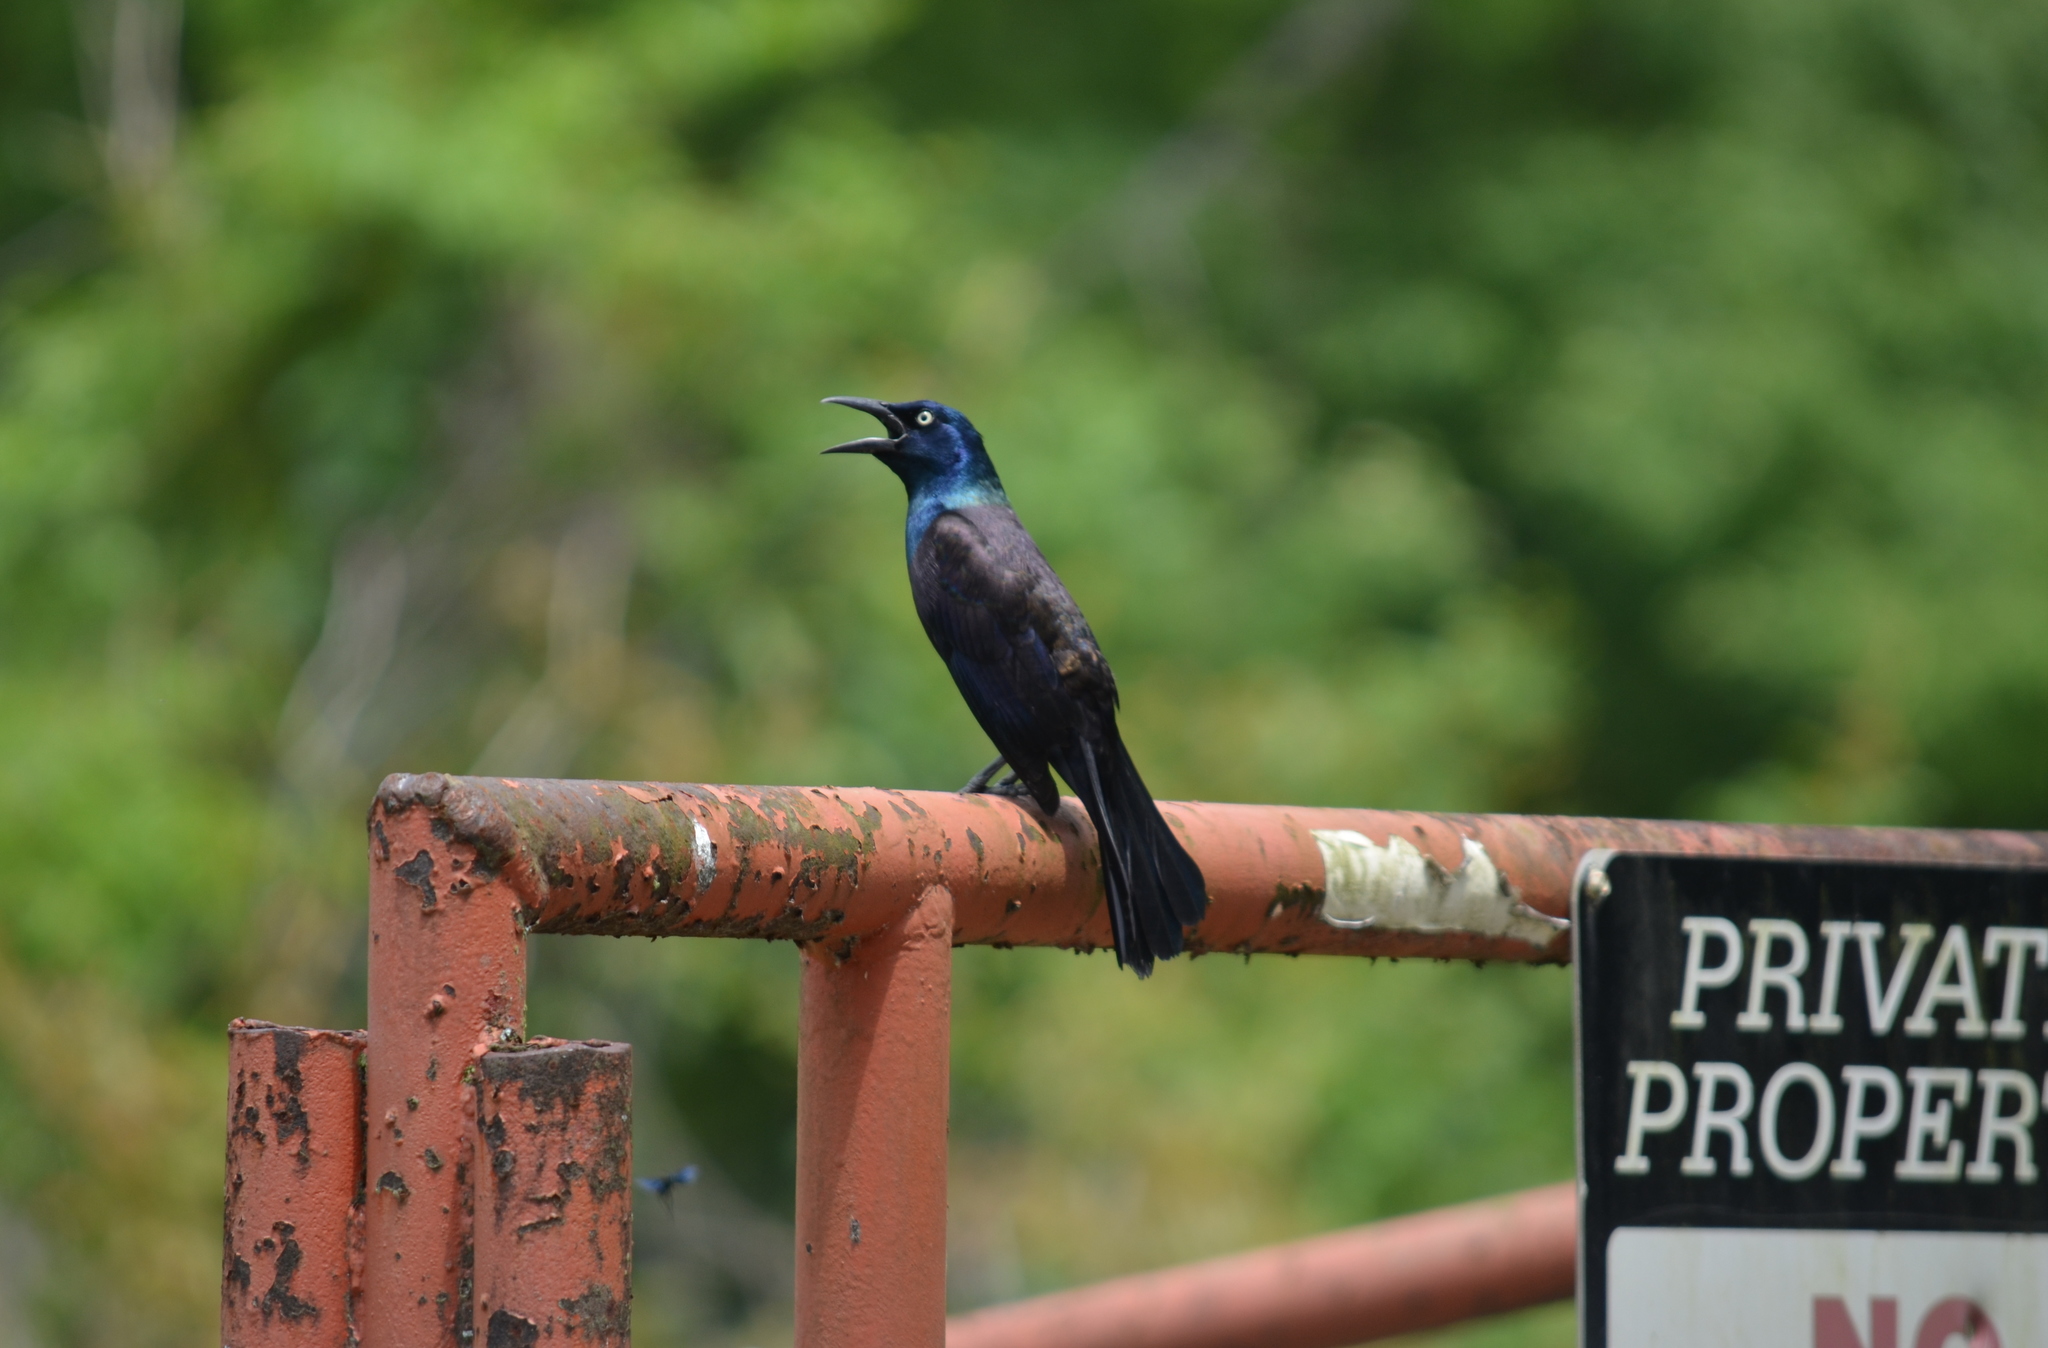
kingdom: Animalia
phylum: Chordata
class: Aves
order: Passeriformes
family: Icteridae
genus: Quiscalus
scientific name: Quiscalus quiscula
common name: Common grackle
